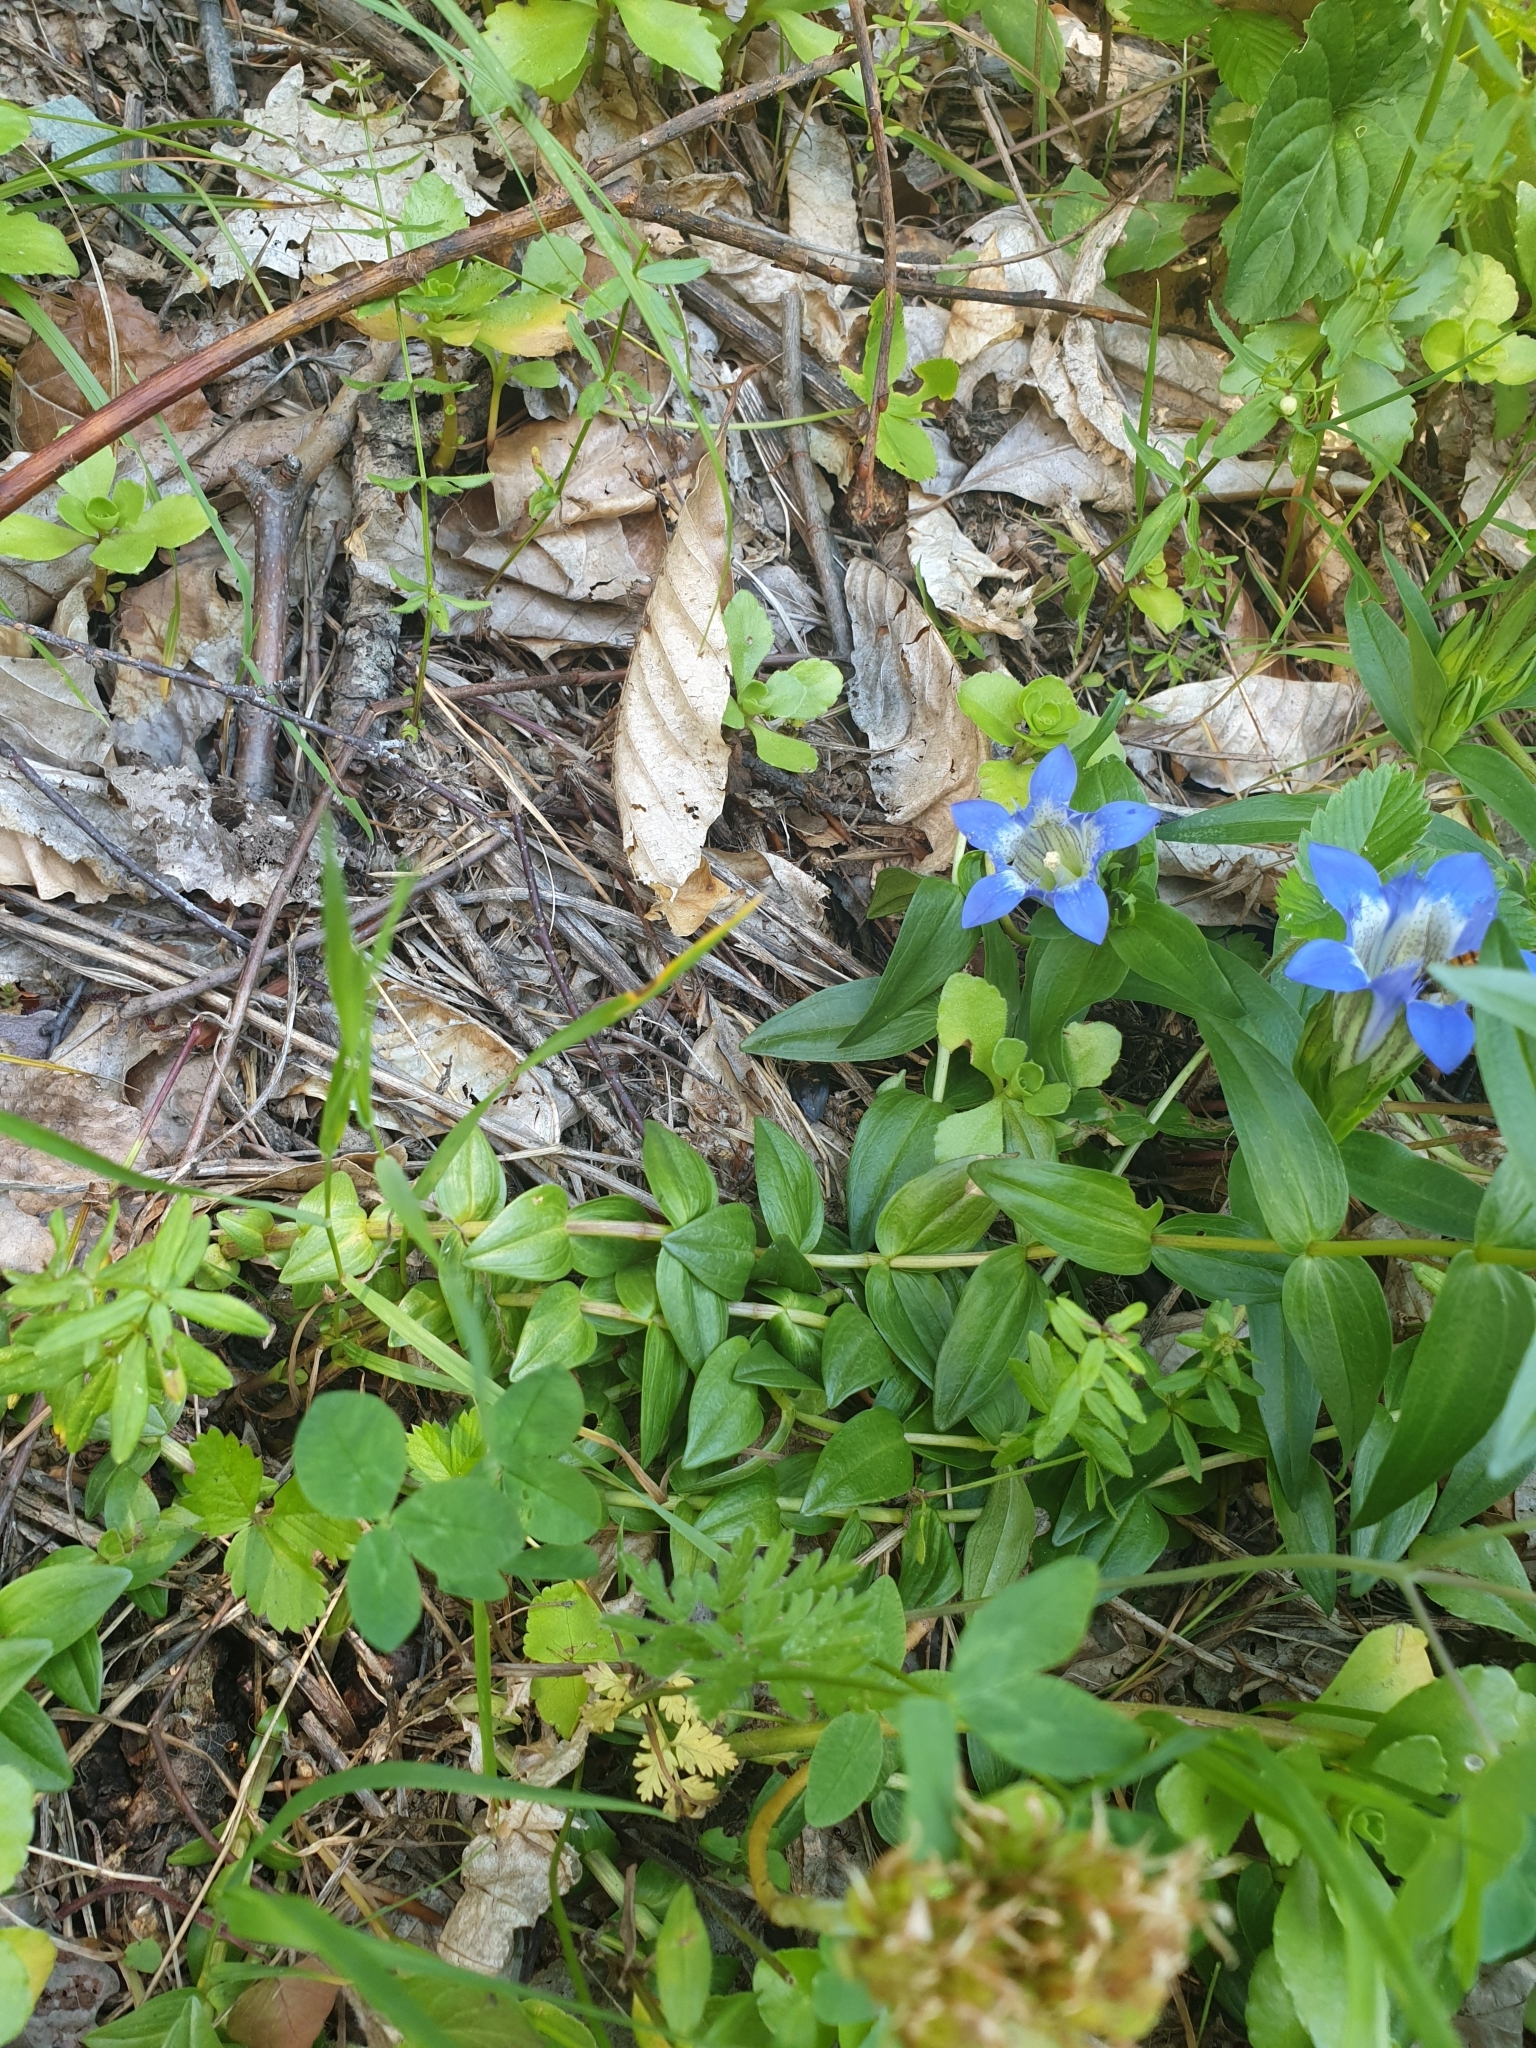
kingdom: Plantae
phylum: Tracheophyta
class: Magnoliopsida
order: Gentianales
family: Gentianaceae
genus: Gentiana
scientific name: Gentiana septemfida
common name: Crested gentian
